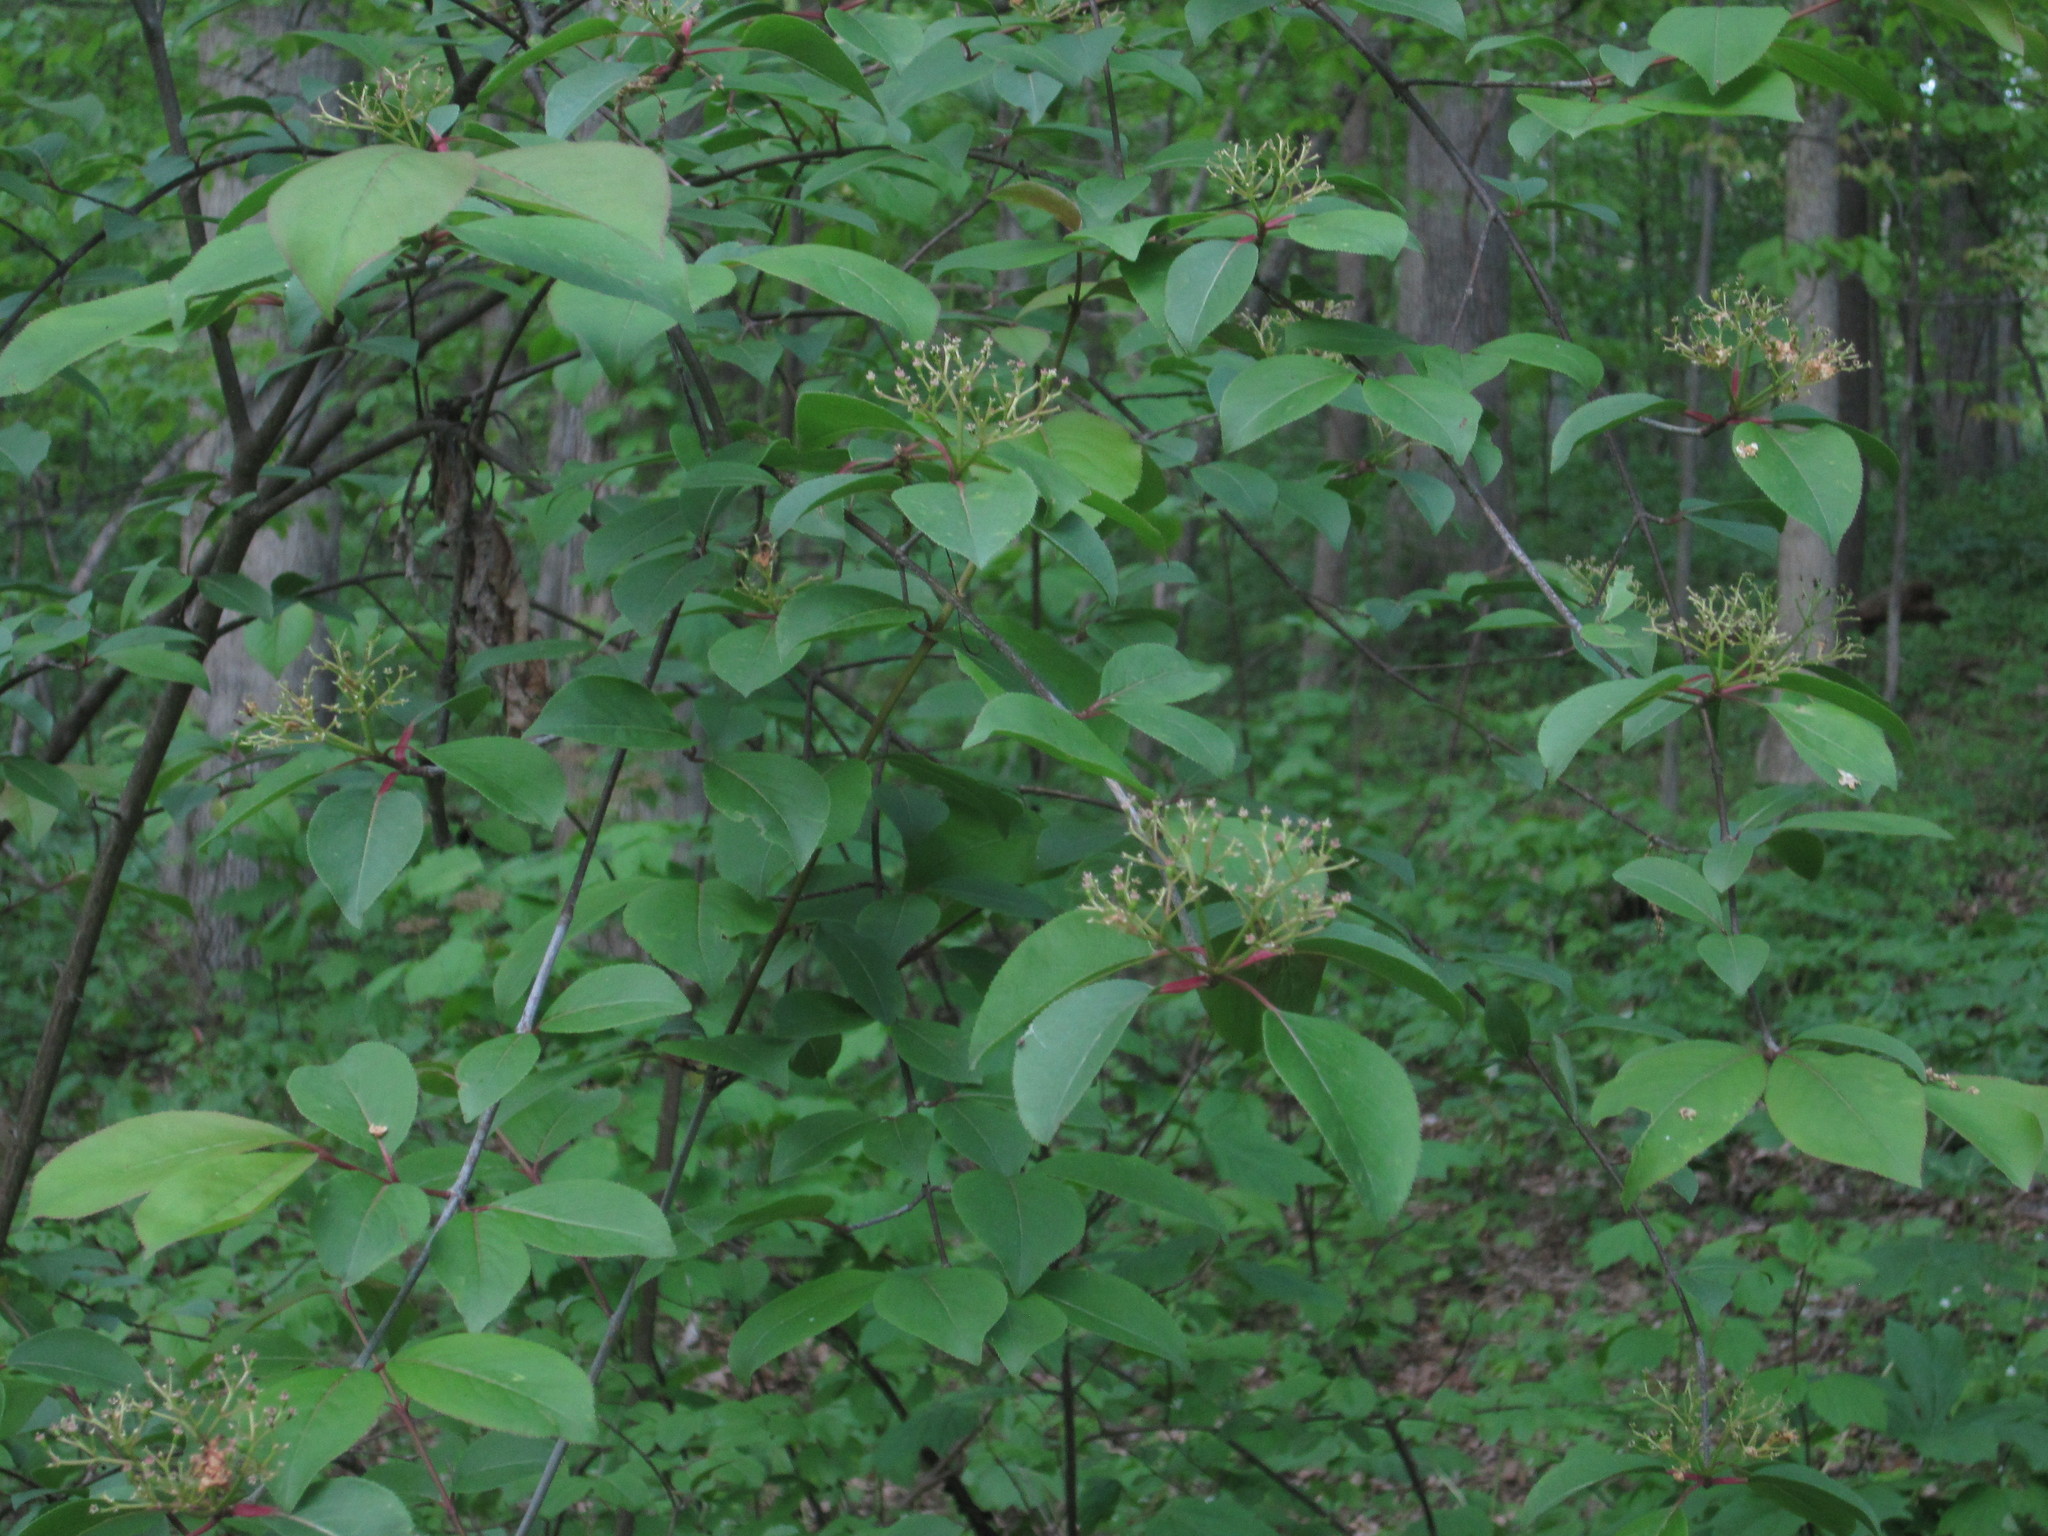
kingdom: Plantae
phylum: Tracheophyta
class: Magnoliopsida
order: Dipsacales
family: Viburnaceae
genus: Viburnum
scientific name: Viburnum prunifolium
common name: Black haw
